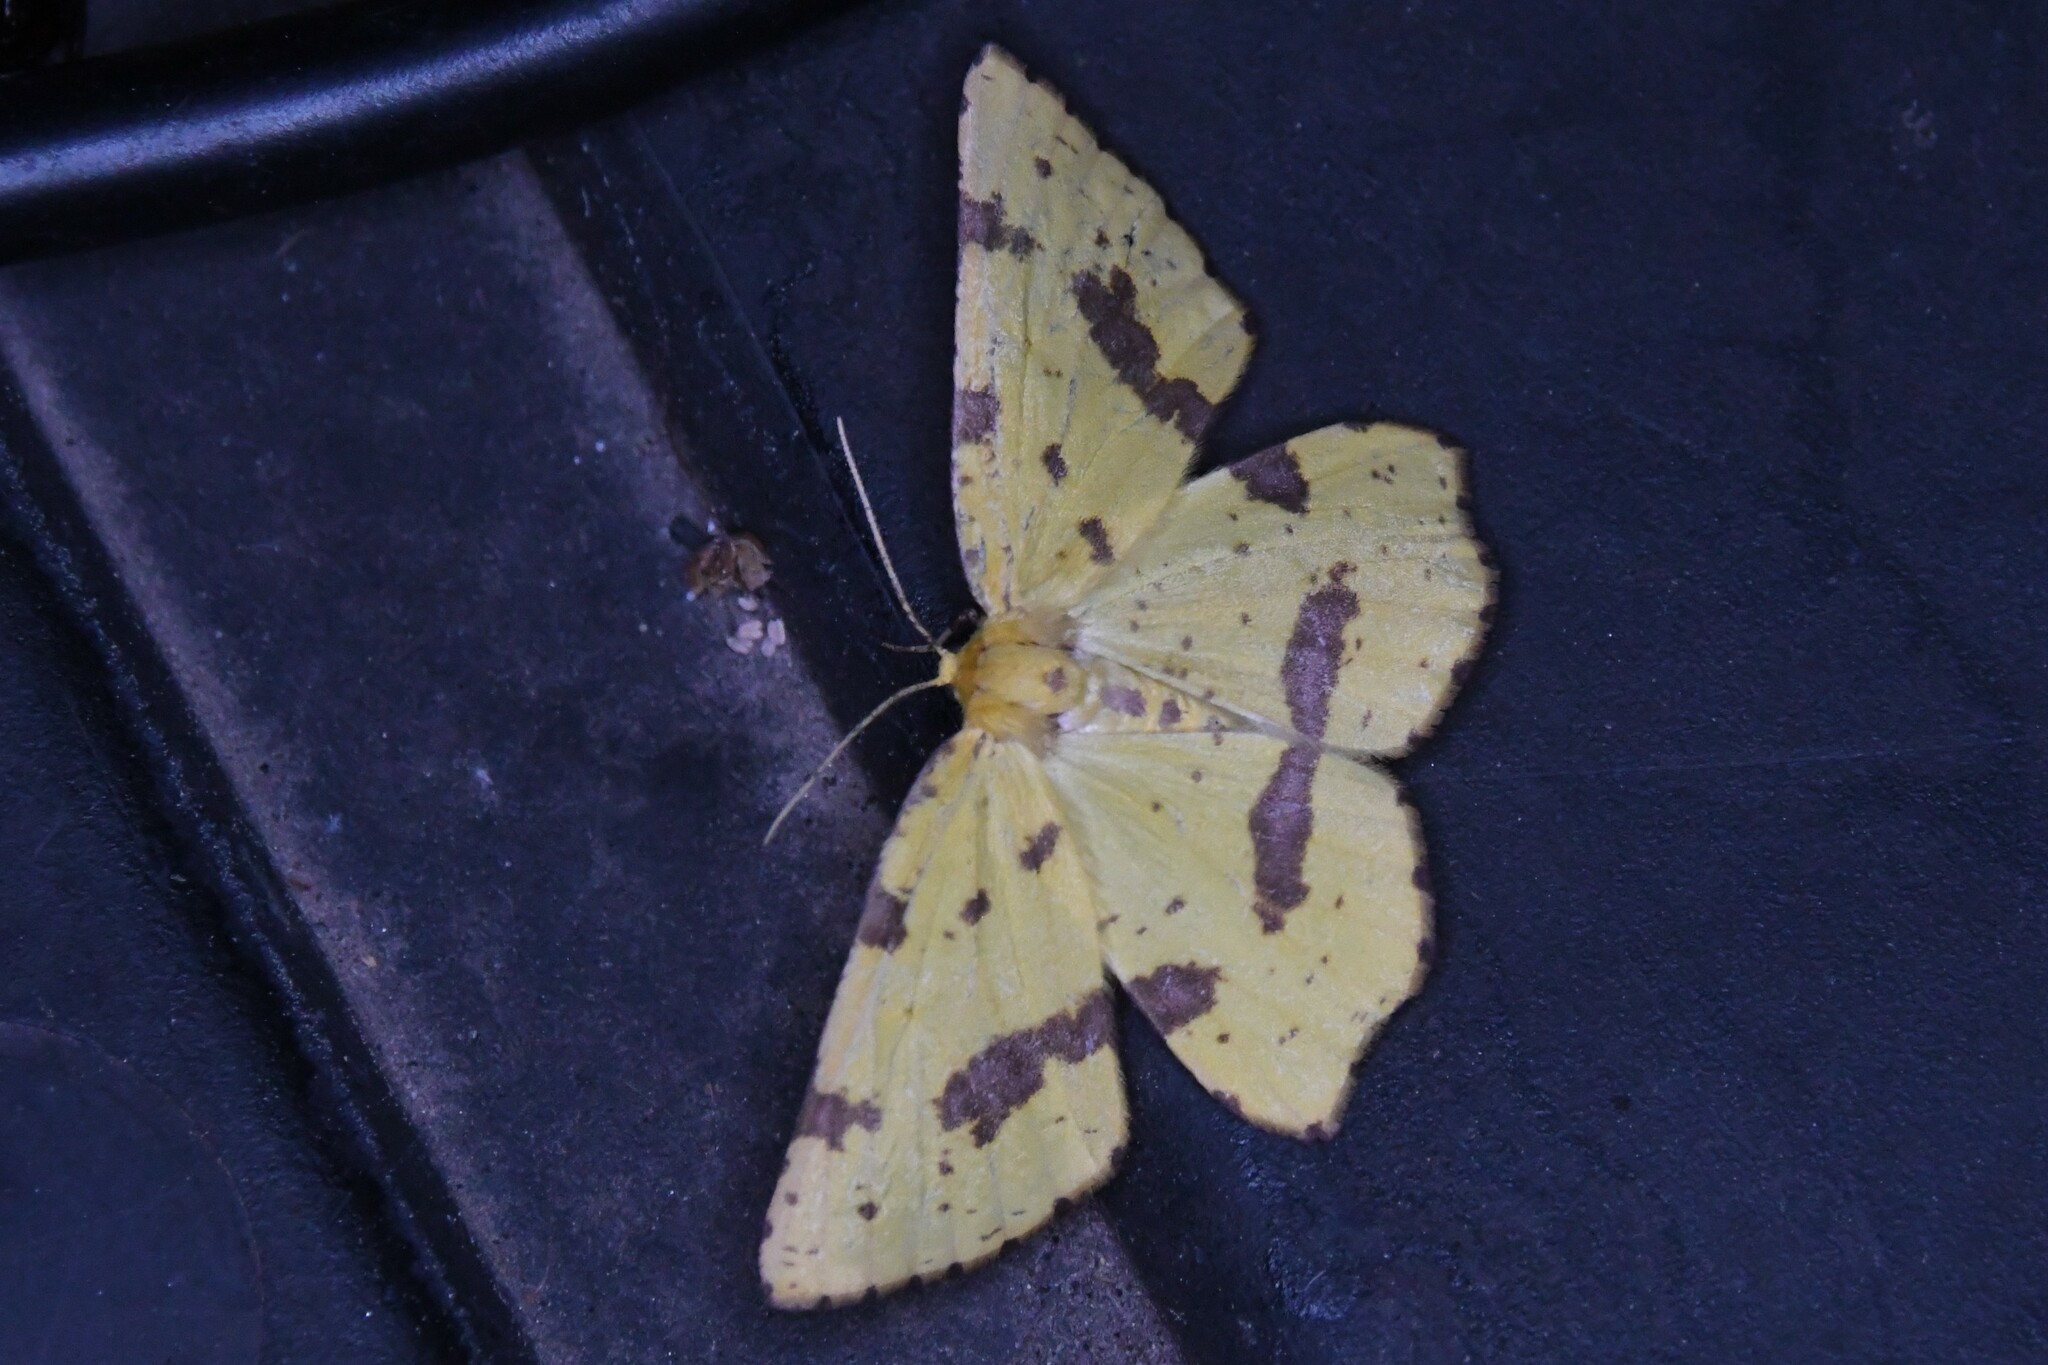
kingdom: Animalia
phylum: Arthropoda
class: Insecta
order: Lepidoptera
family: Geometridae
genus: Xanthotype
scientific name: Xanthotype
